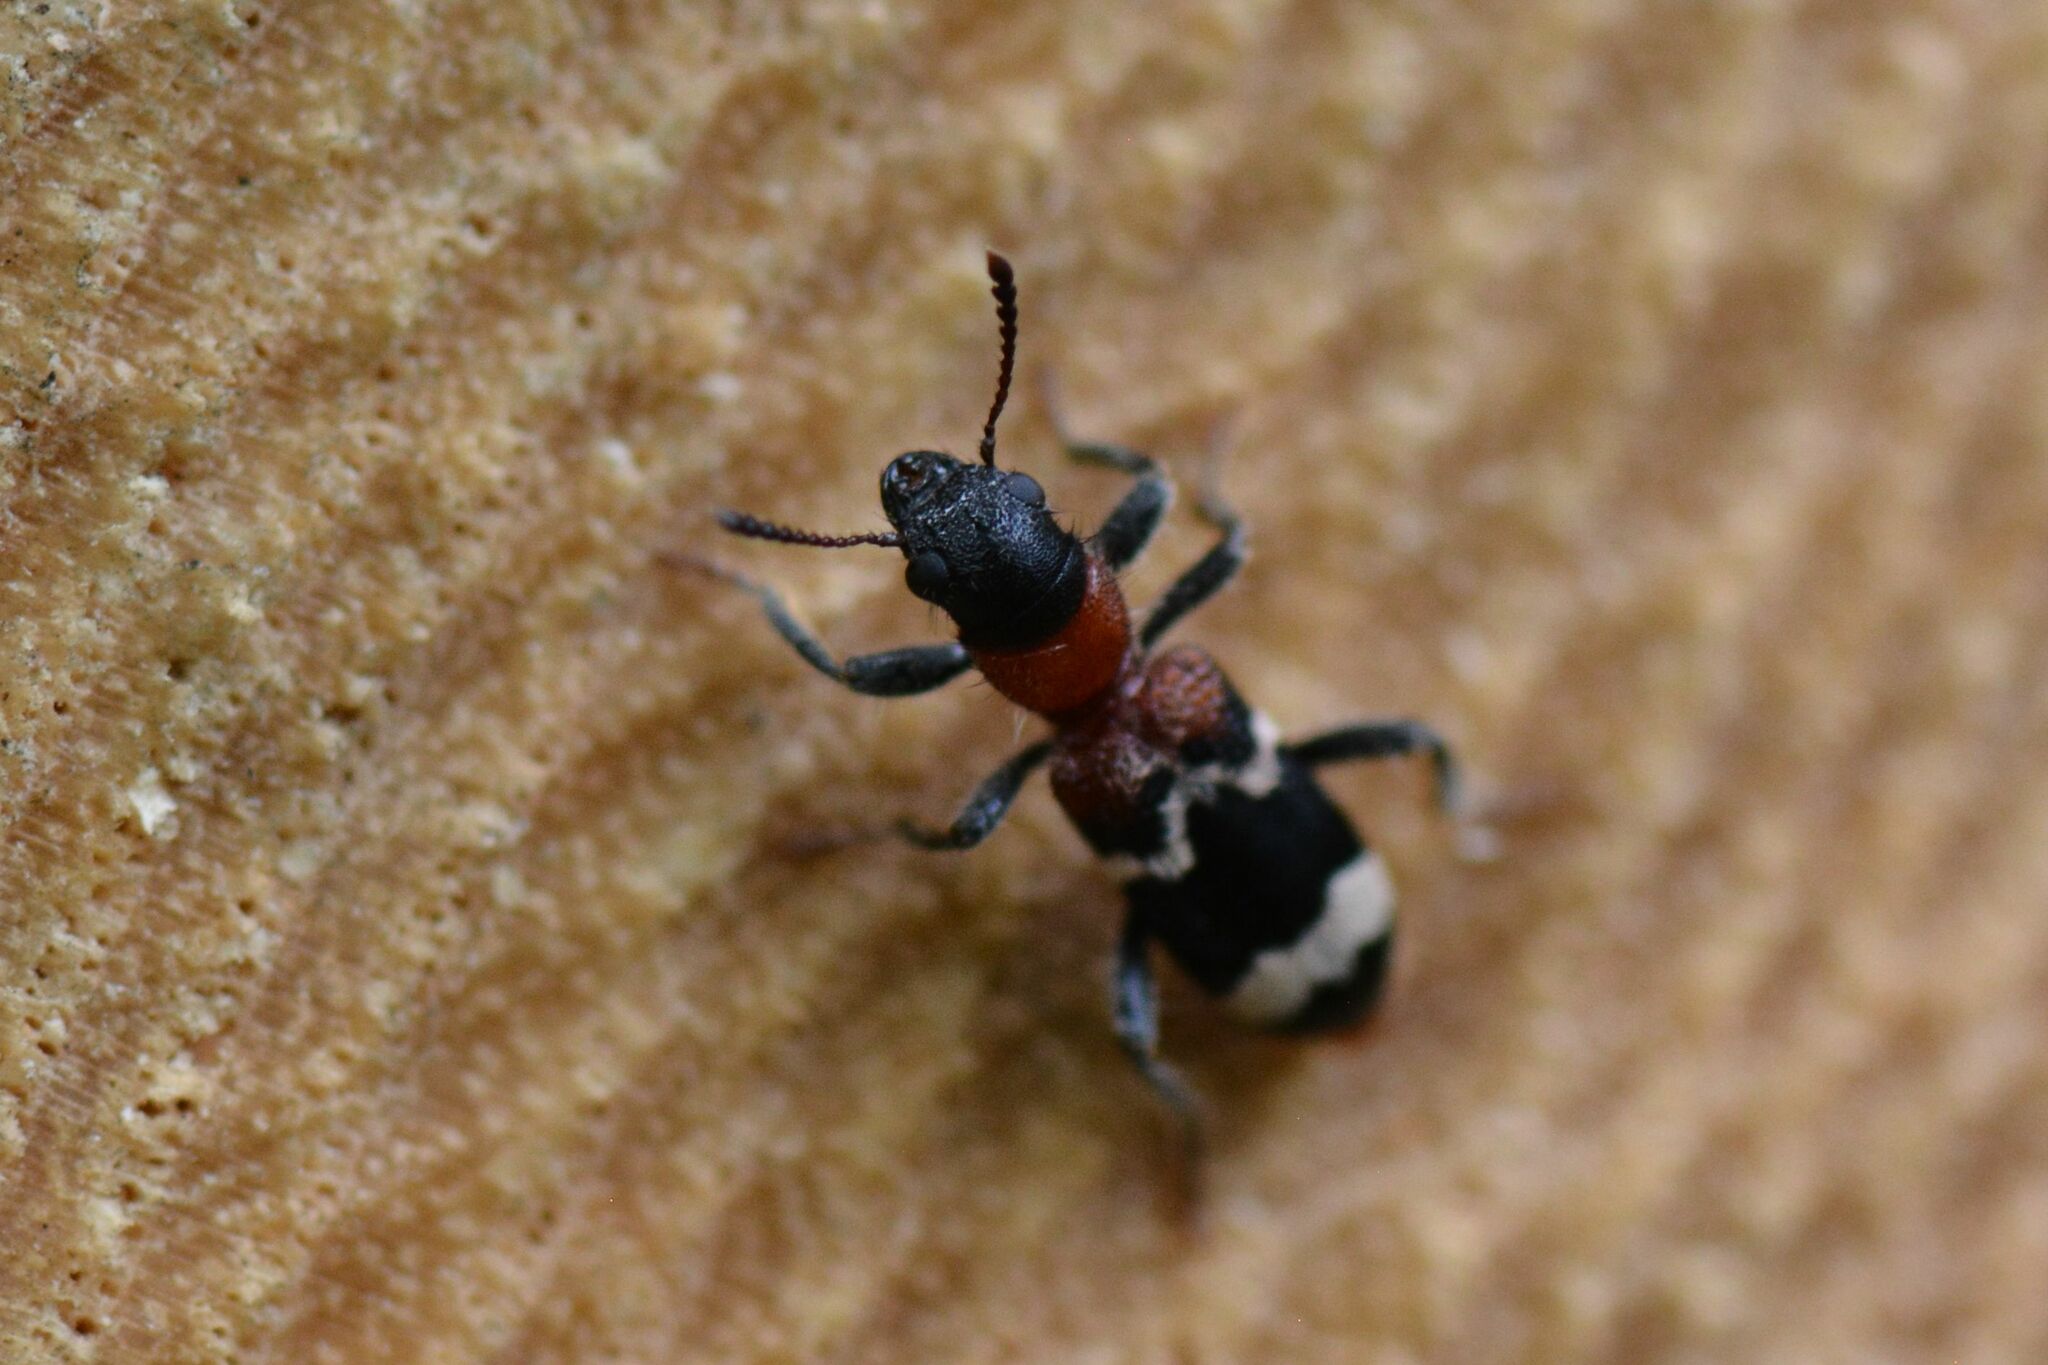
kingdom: Animalia
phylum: Arthropoda
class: Insecta
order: Coleoptera
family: Cleridae
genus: Thanasimus
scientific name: Thanasimus formicarius
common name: Ant beetle
